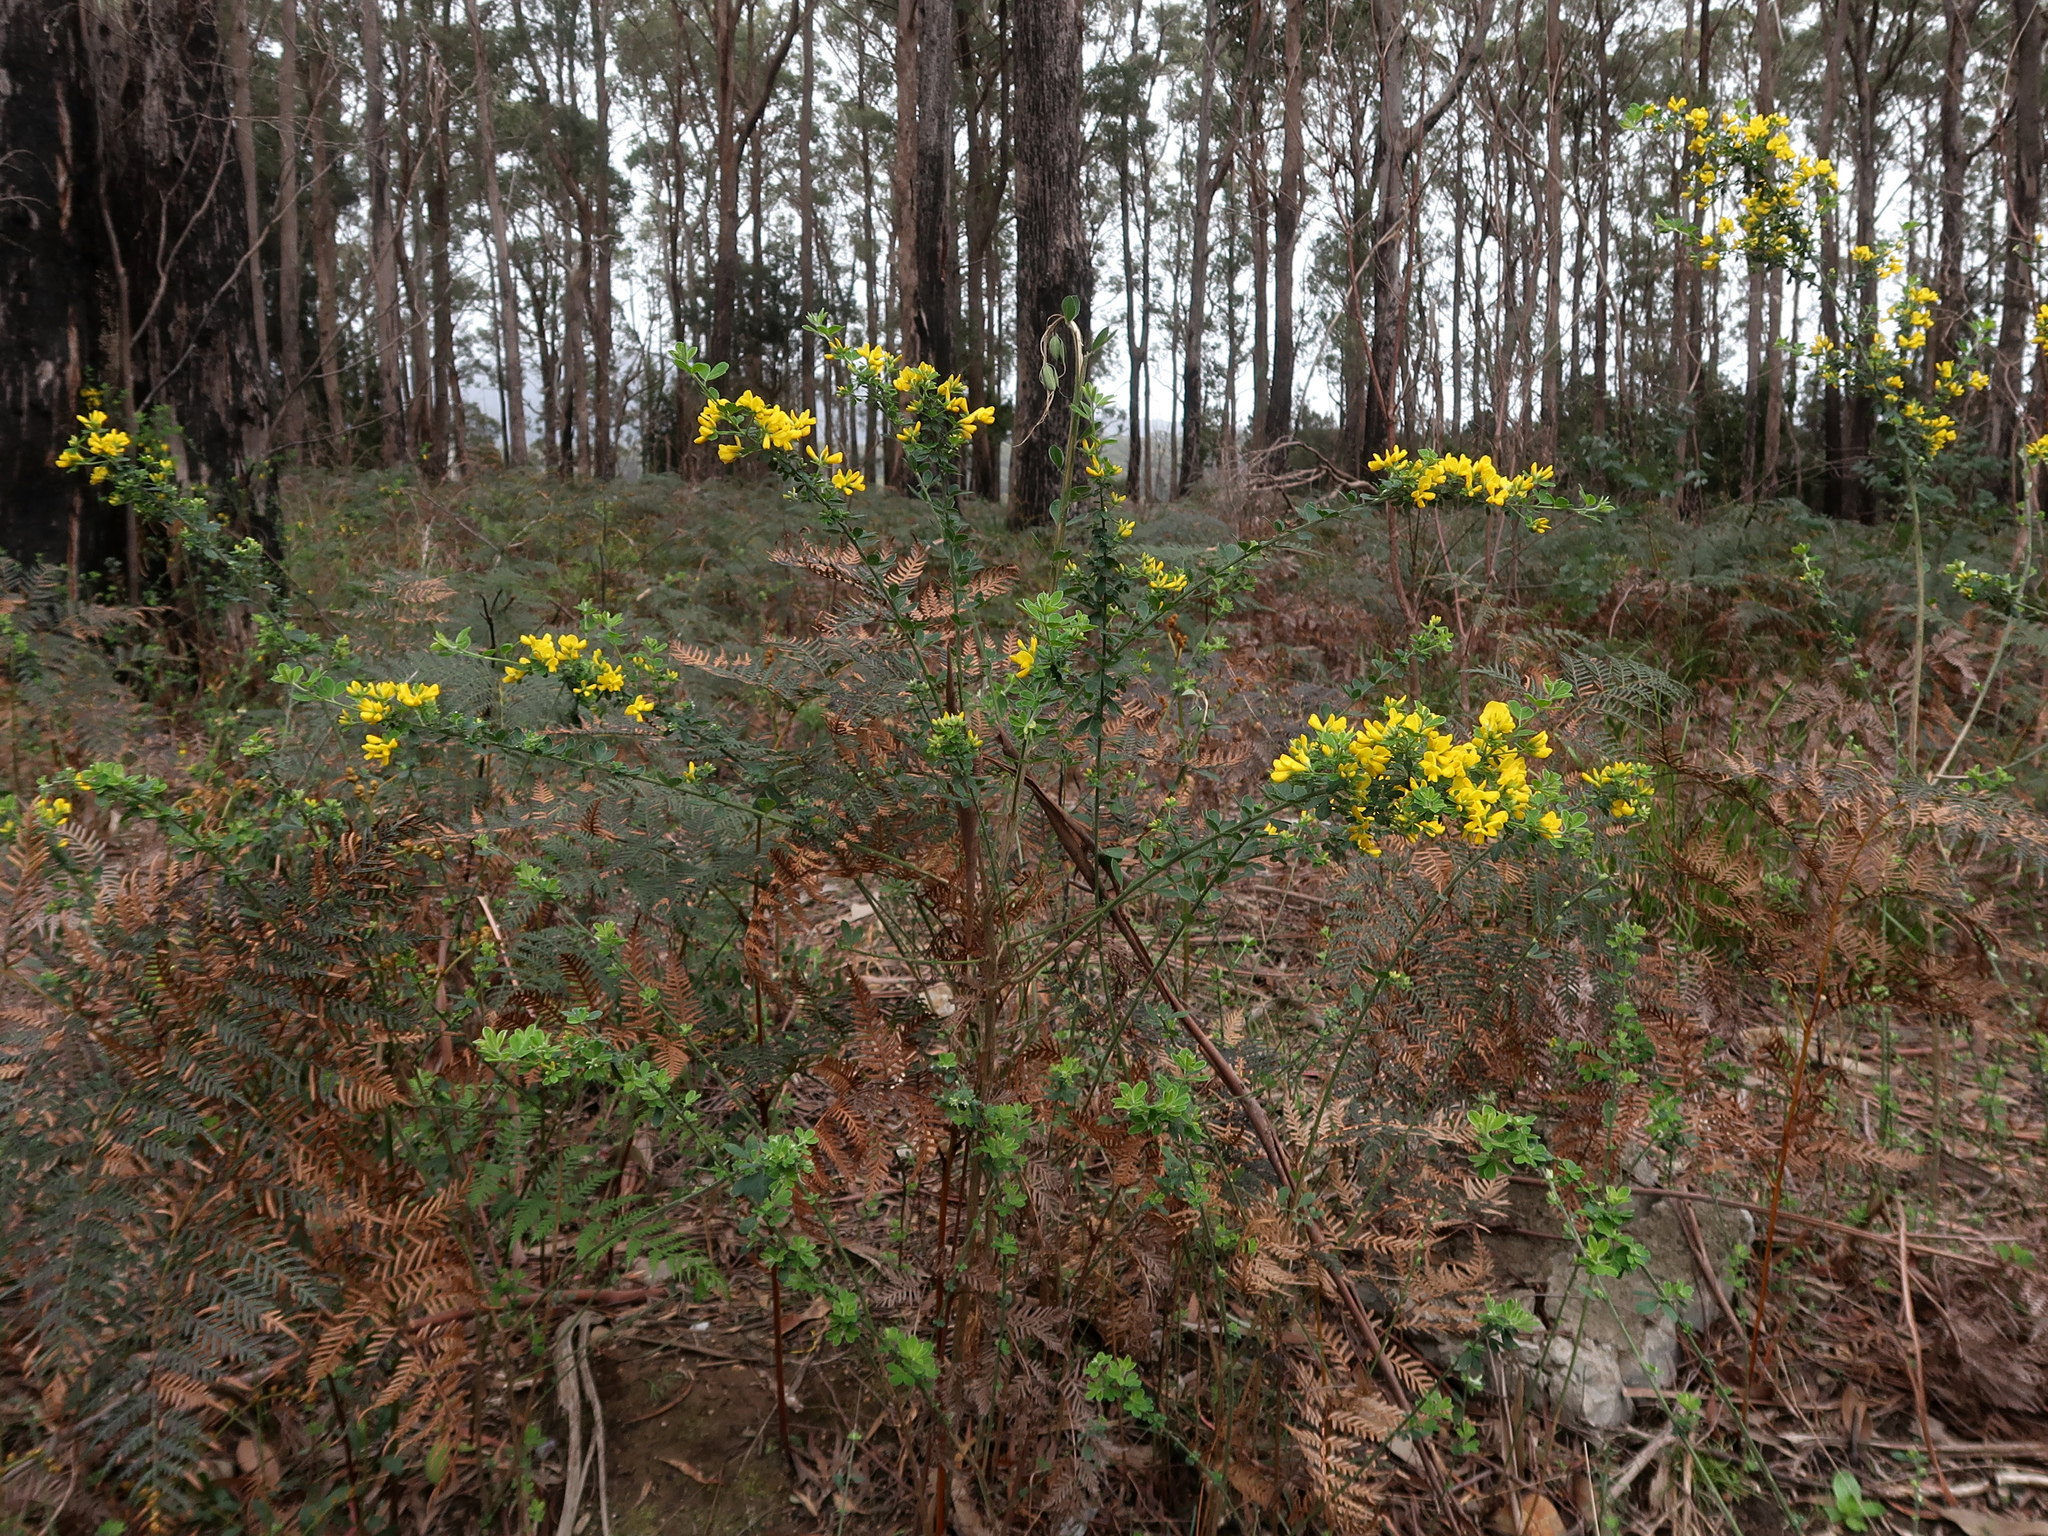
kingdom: Plantae
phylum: Tracheophyta
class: Magnoliopsida
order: Fabales
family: Fabaceae
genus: Genista
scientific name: Genista monspessulana
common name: Montpellier broom
